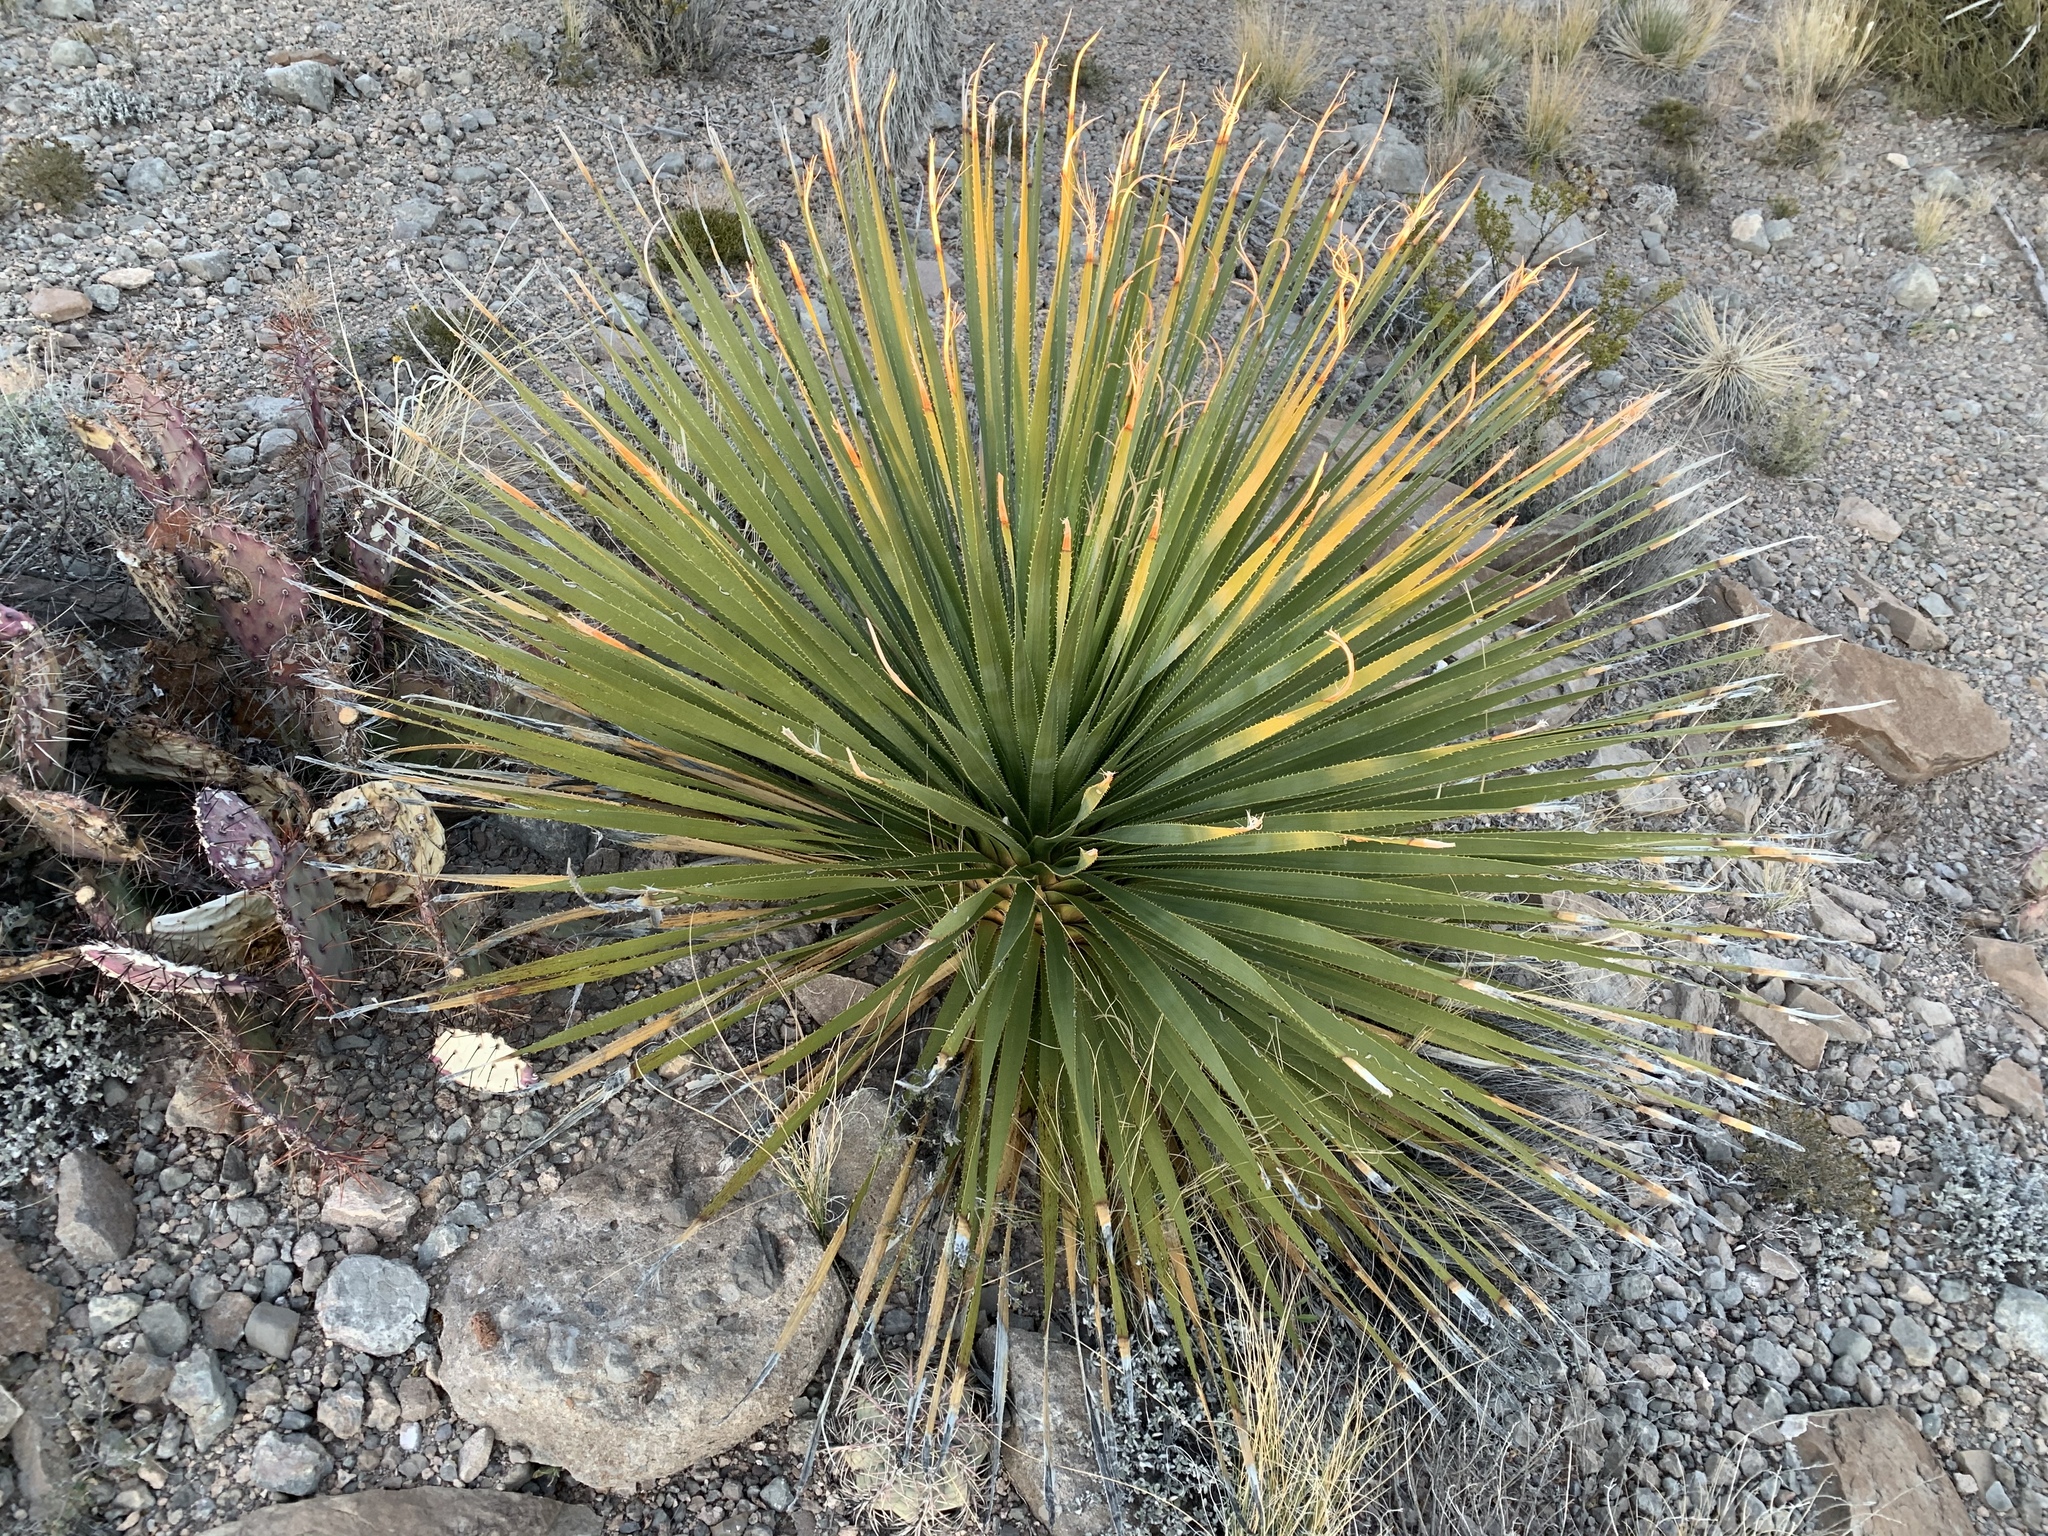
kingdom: Plantae
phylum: Tracheophyta
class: Liliopsida
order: Asparagales
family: Asparagaceae
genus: Dasylirion
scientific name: Dasylirion wheeleri
